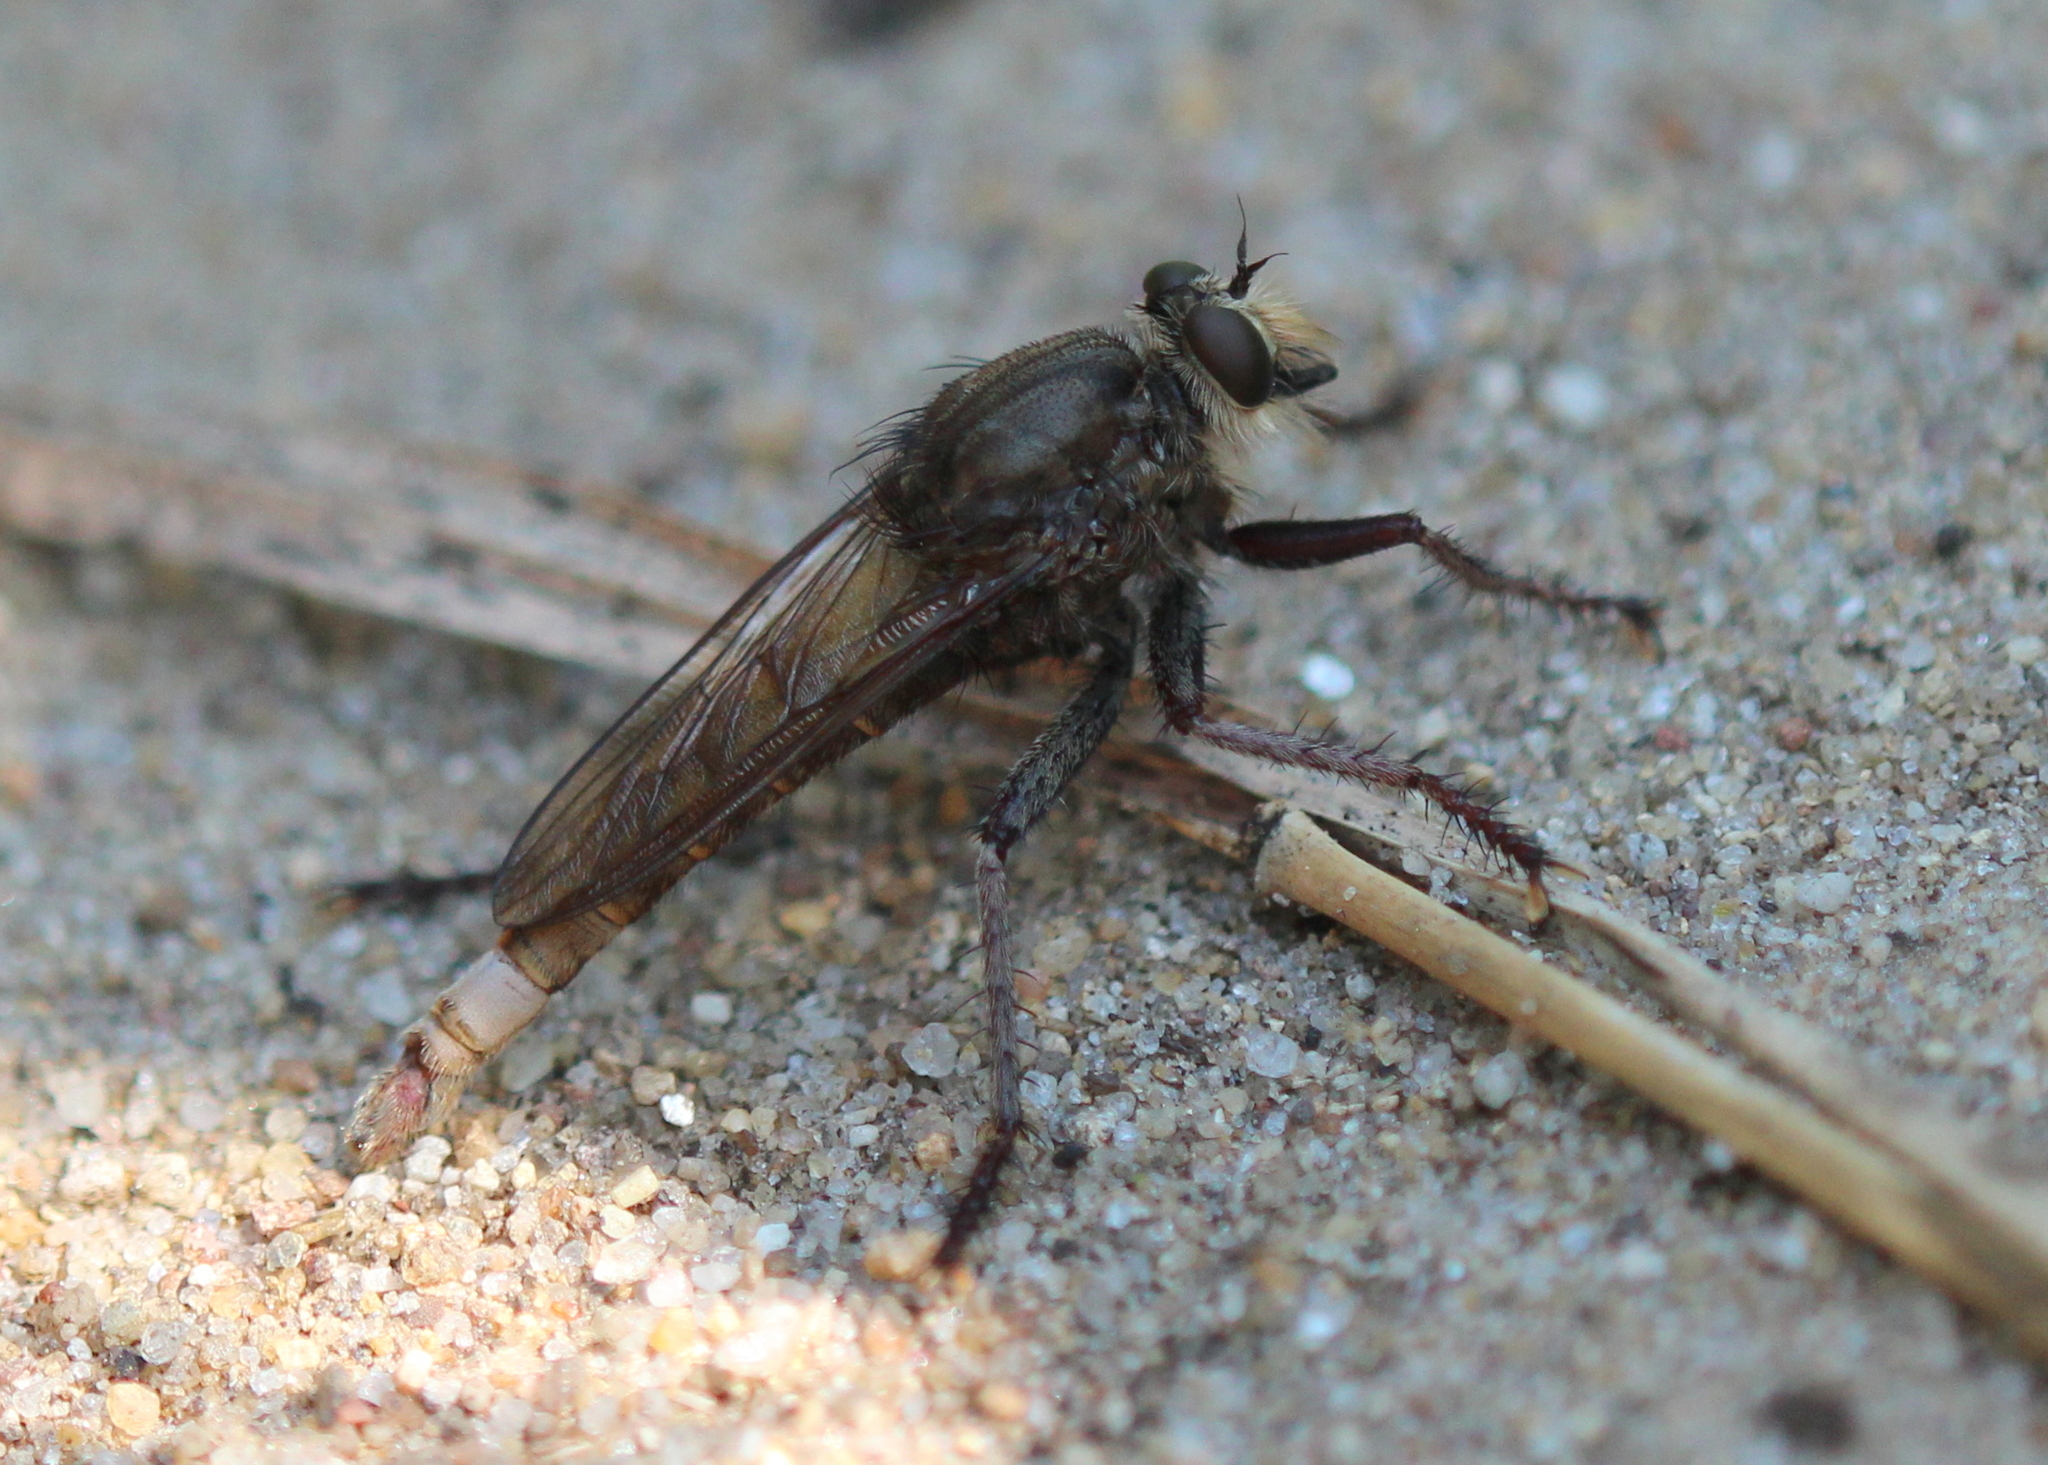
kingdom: Animalia
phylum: Arthropoda
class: Insecta
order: Diptera
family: Asilidae
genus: Proctacanthus
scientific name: Proctacanthus philadelphicus
